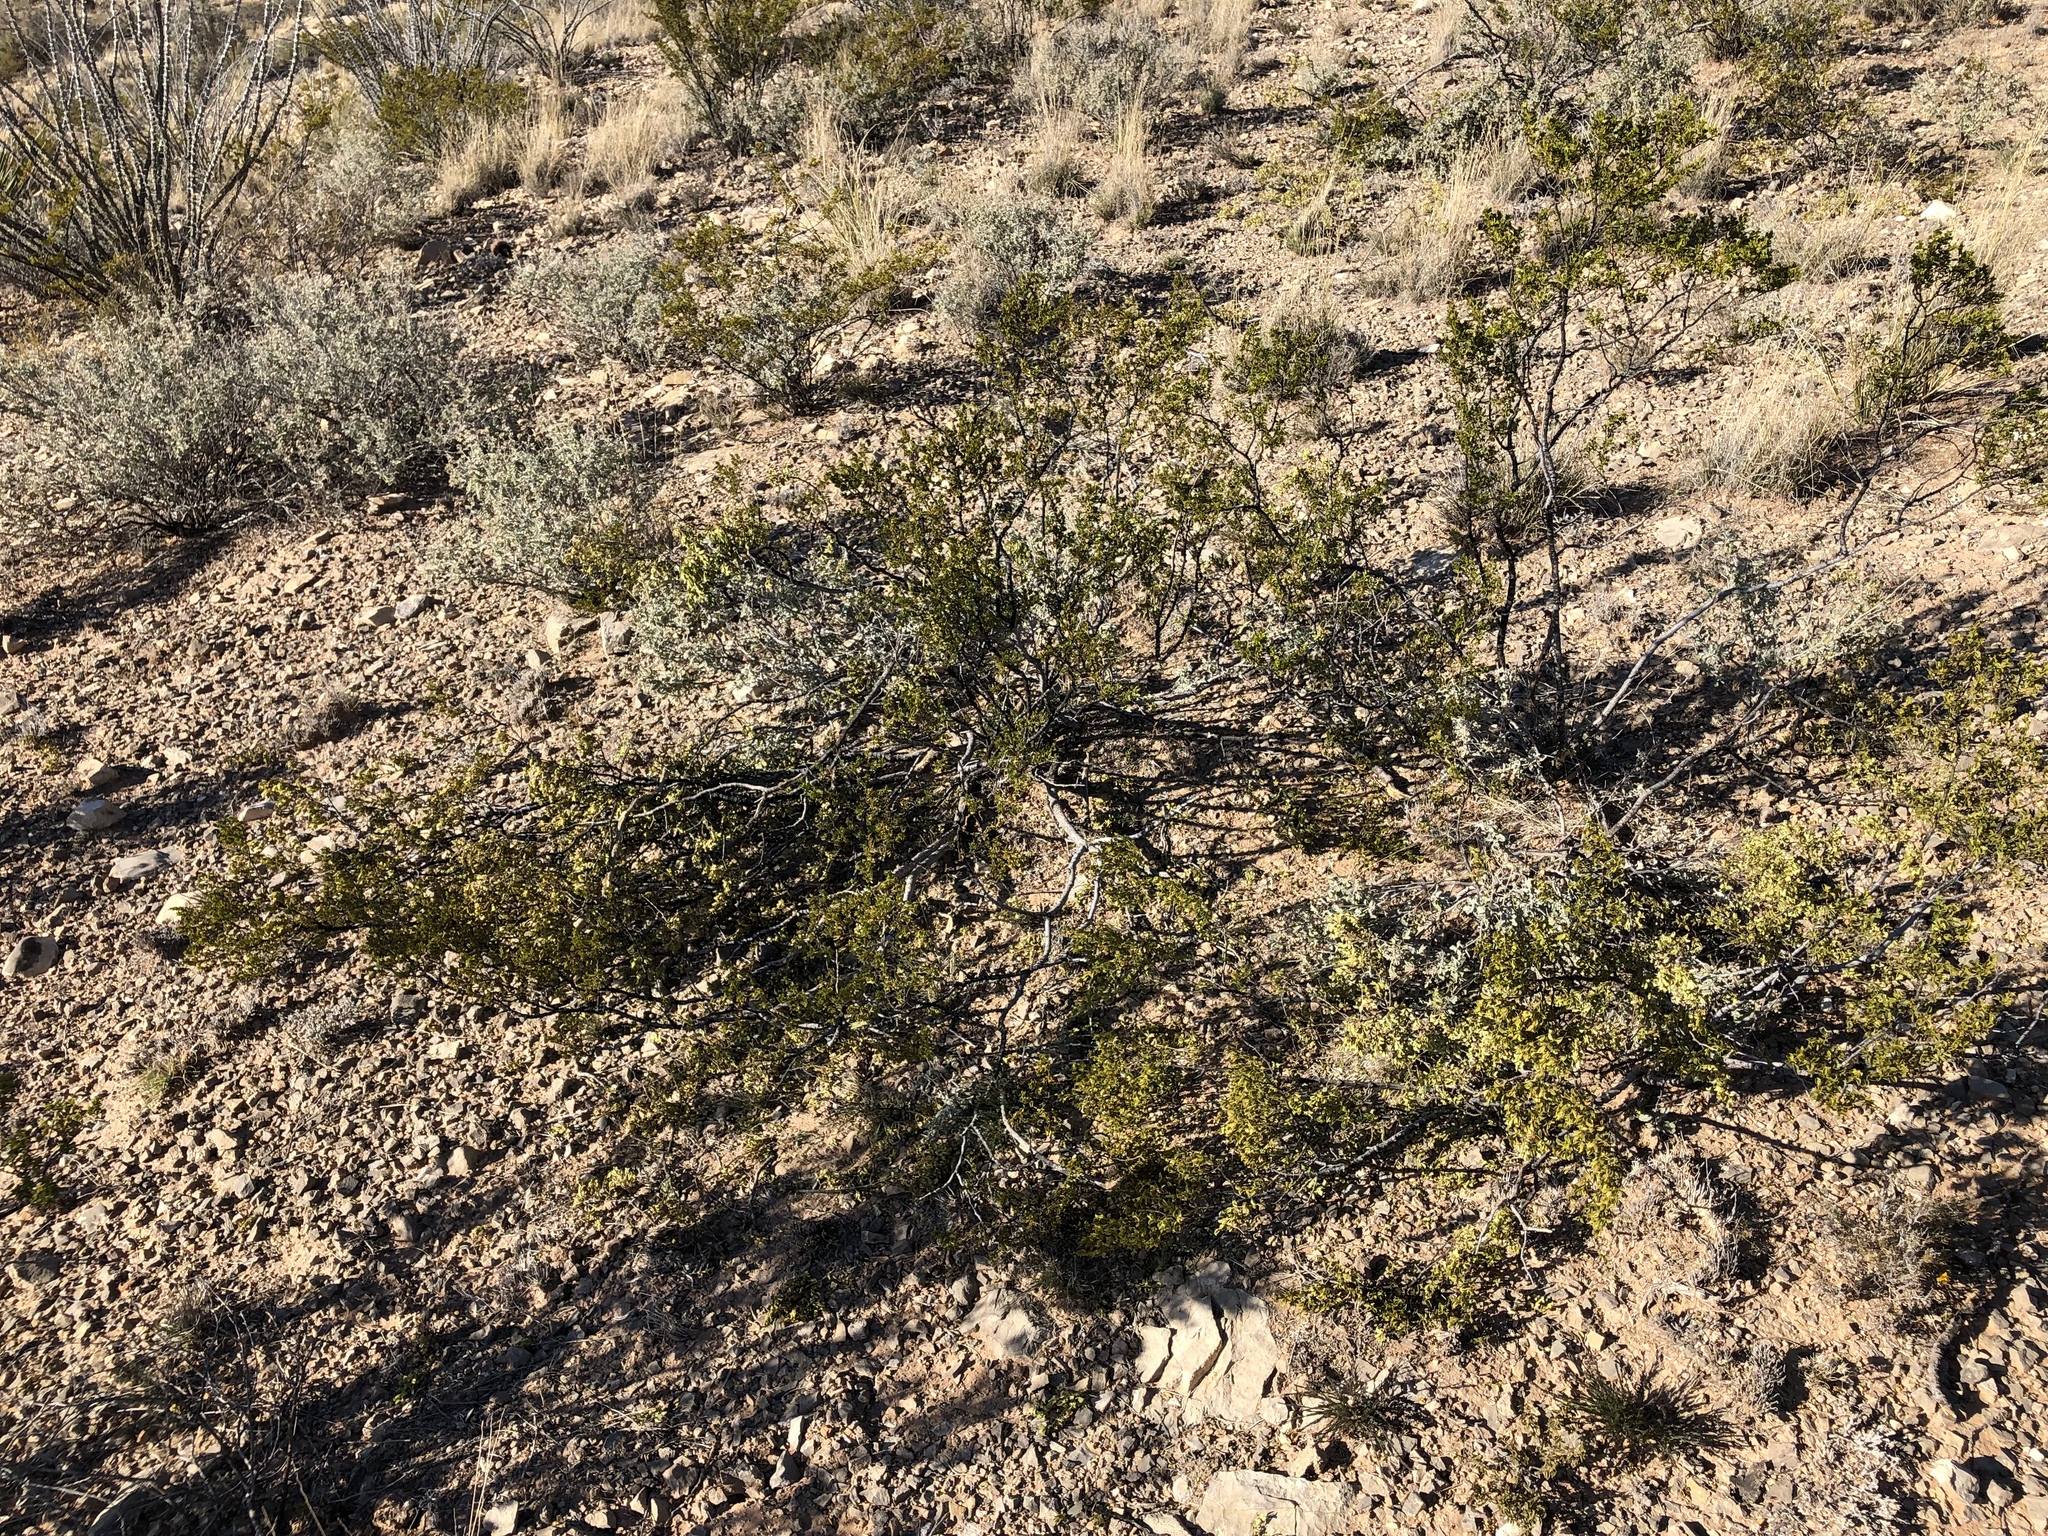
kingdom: Plantae
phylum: Tracheophyta
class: Magnoliopsida
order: Zygophyllales
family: Zygophyllaceae
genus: Larrea
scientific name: Larrea tridentata
